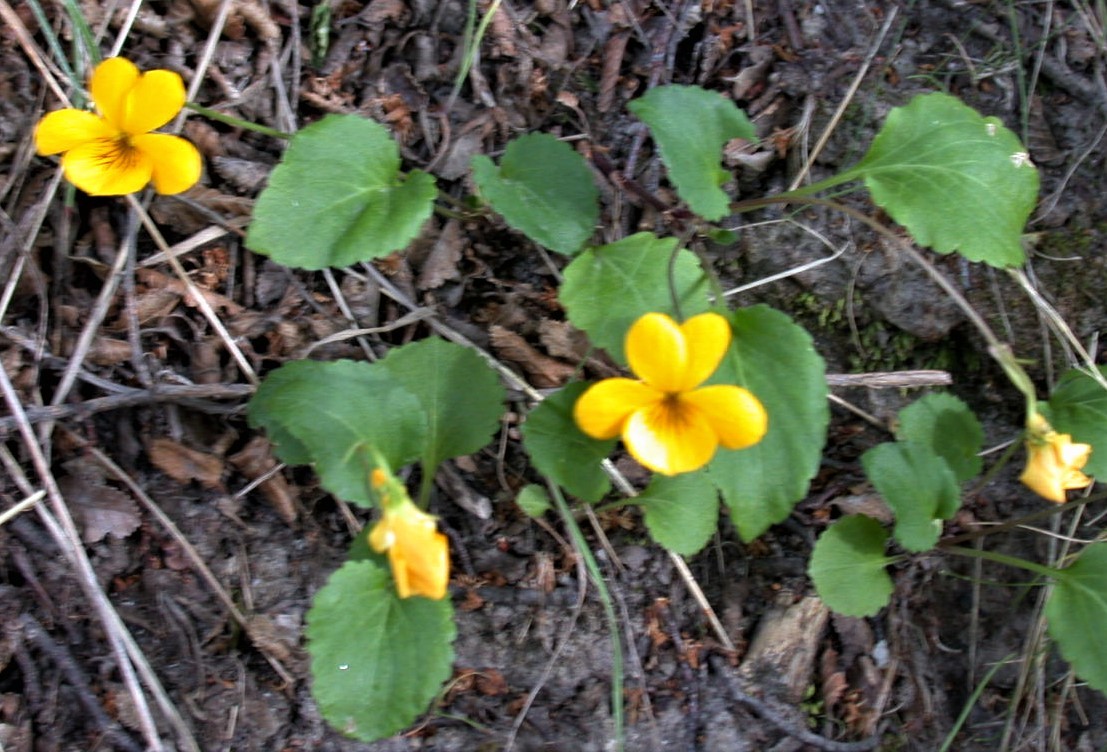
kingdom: Plantae
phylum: Tracheophyta
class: Magnoliopsida
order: Malpighiales
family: Violaceae
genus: Viola
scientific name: Viola maculata
